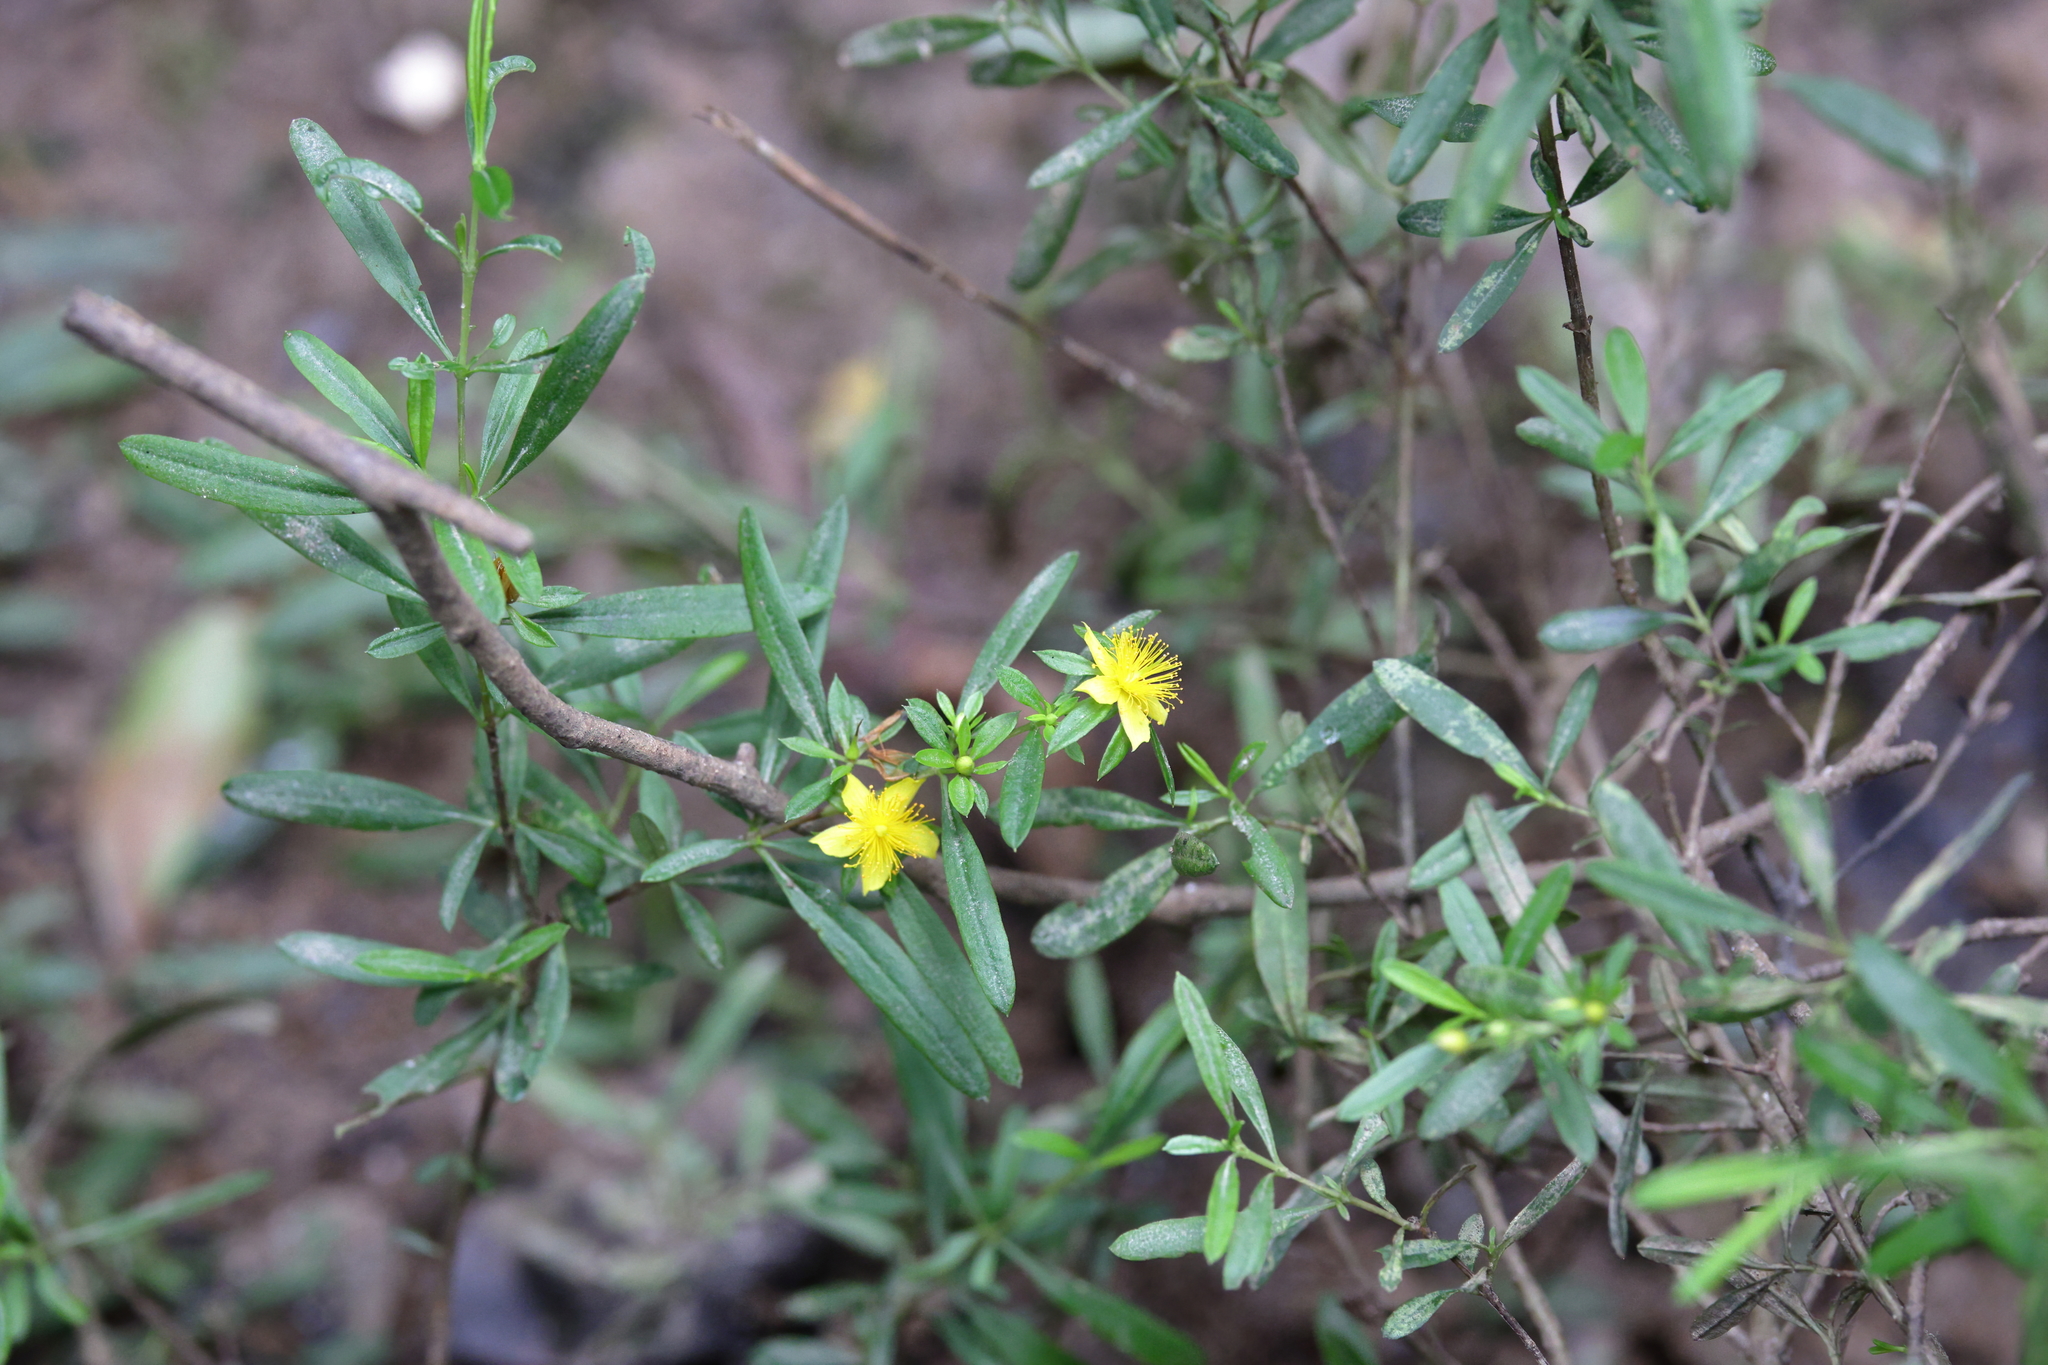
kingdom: Plantae
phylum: Tracheophyta
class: Magnoliopsida
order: Malpighiales
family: Hypericaceae
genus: Hypericum
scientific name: Hypericum galioides
